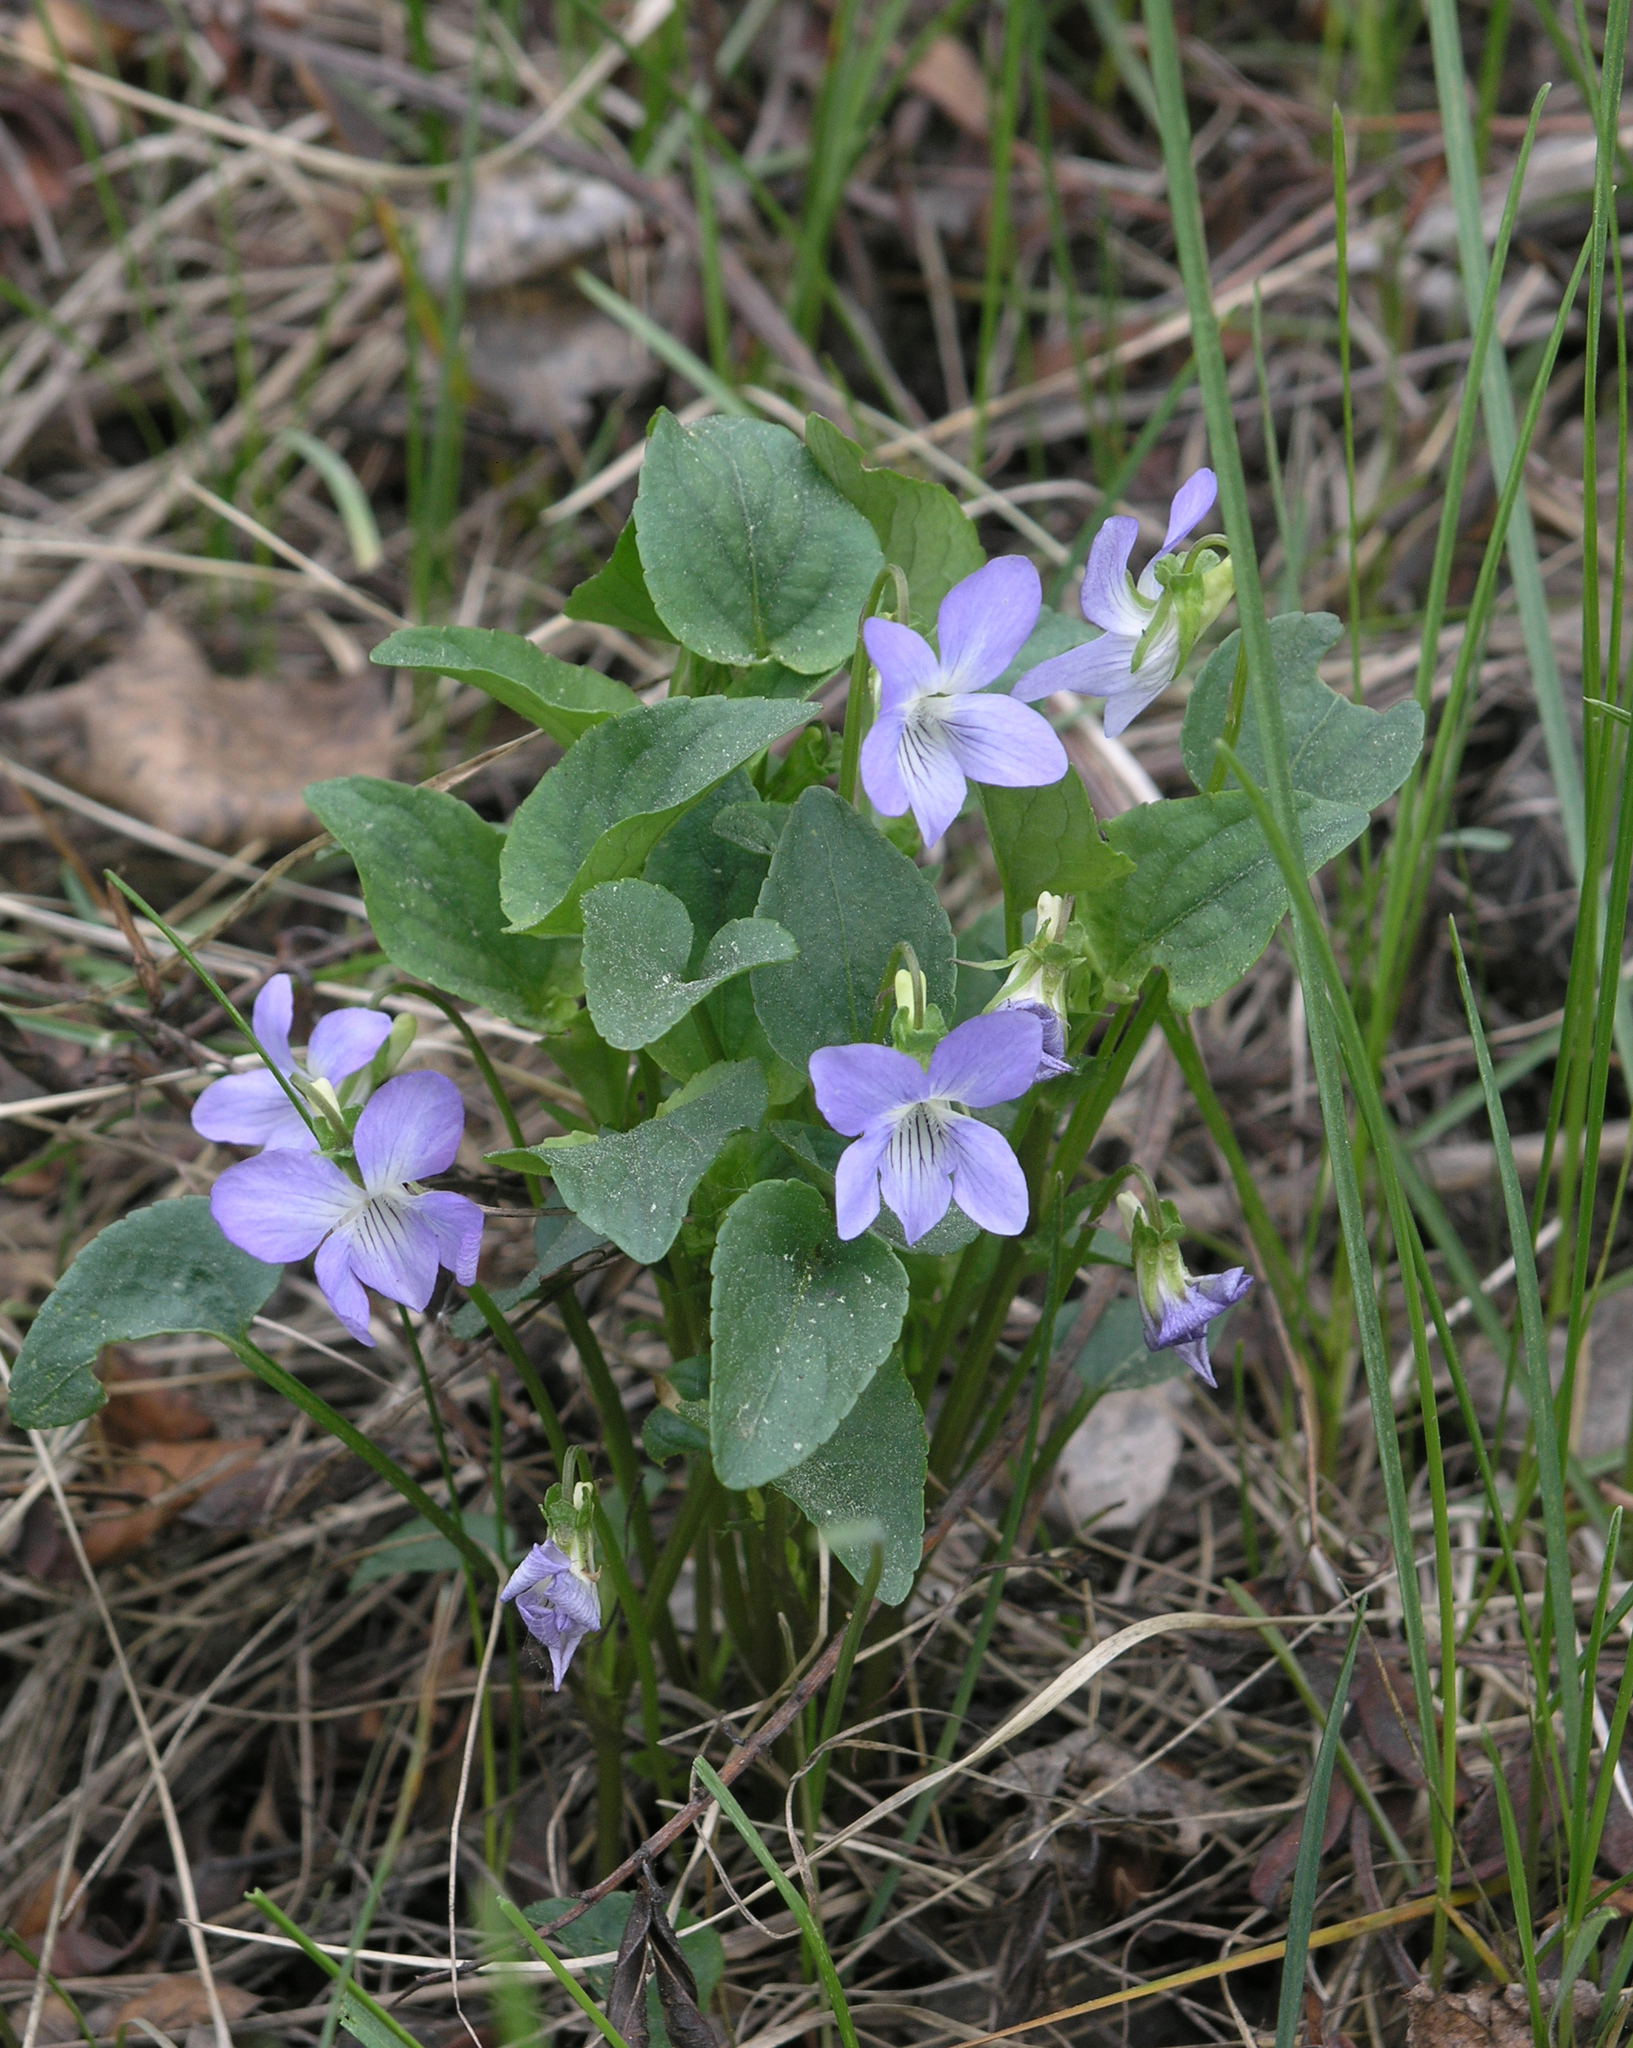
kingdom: Plantae
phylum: Tracheophyta
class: Magnoliopsida
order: Malpighiales
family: Violaceae
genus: Viola
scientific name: Viola
